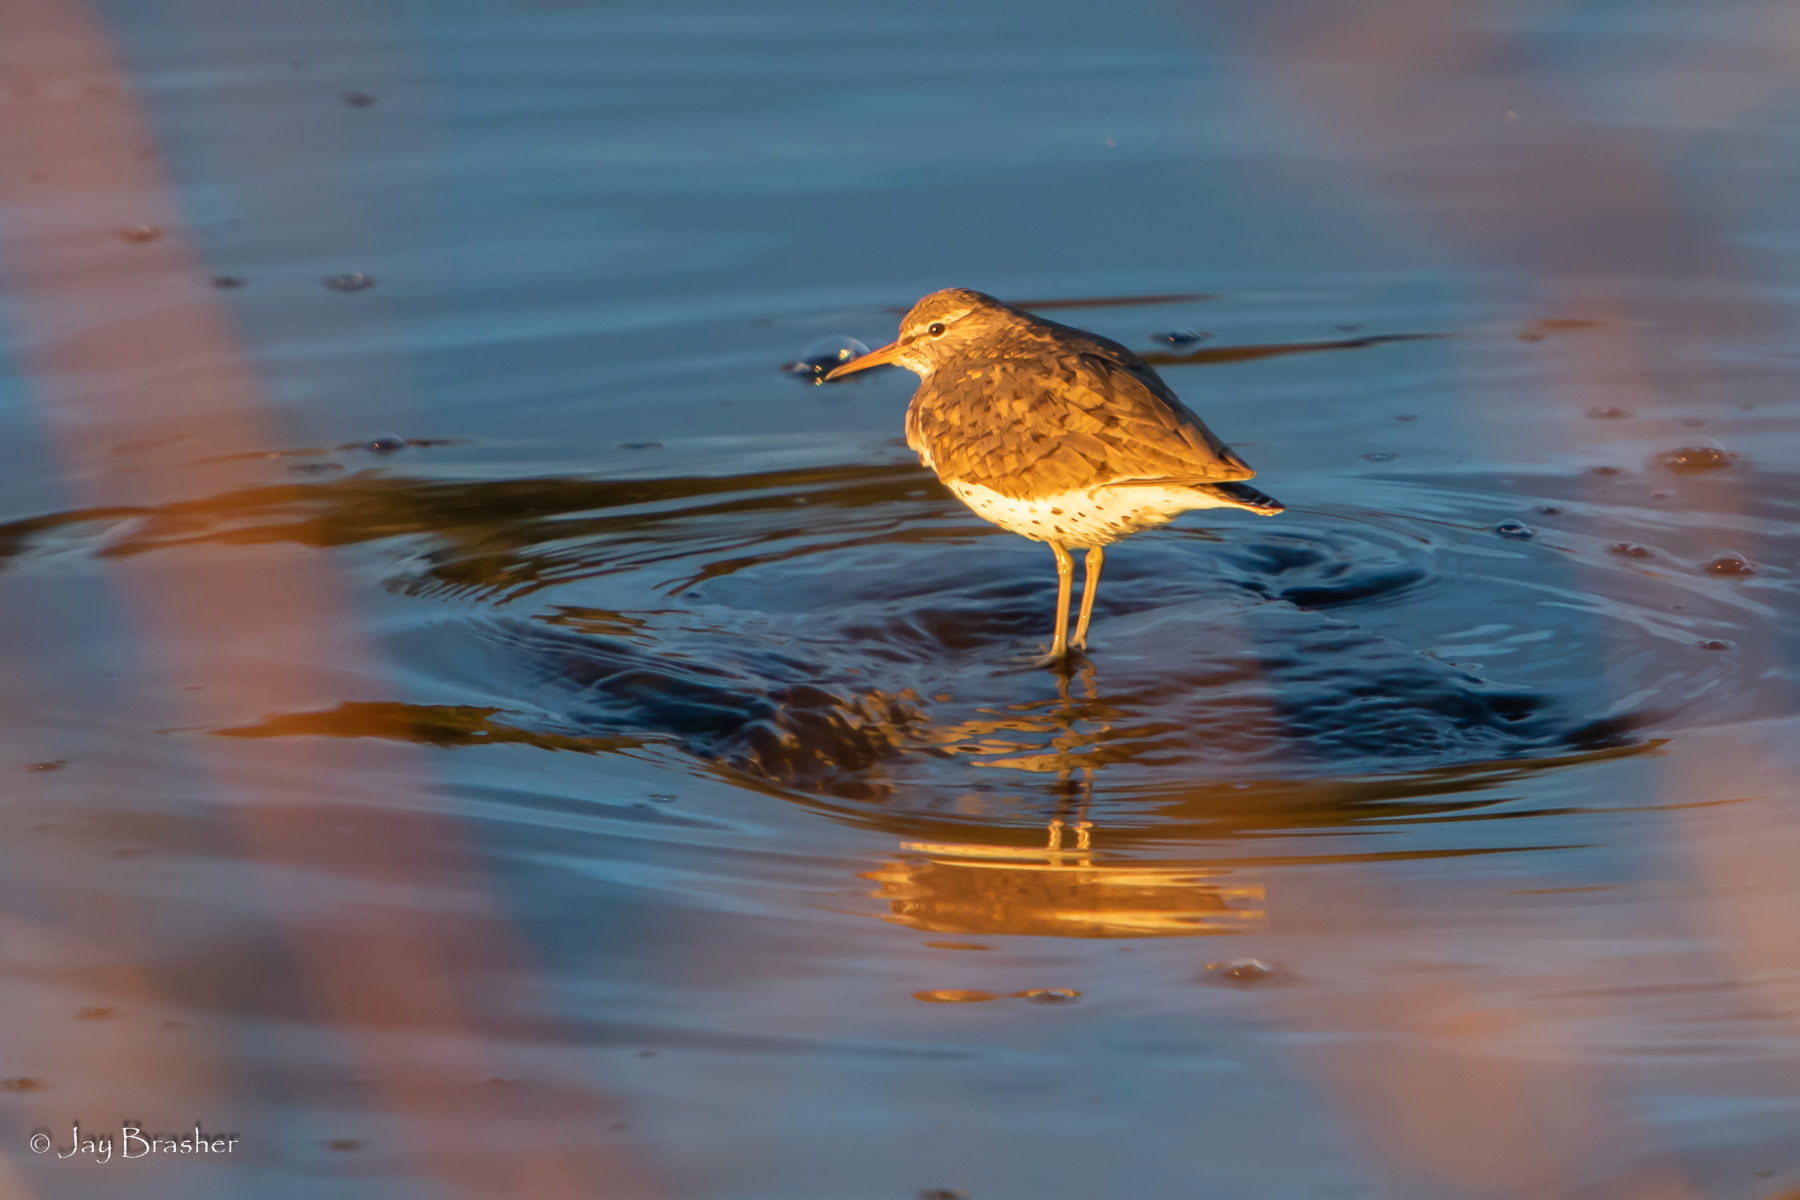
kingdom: Animalia
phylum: Chordata
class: Aves
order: Charadriiformes
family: Scolopacidae
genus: Actitis
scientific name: Actitis macularius
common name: Spotted sandpiper
